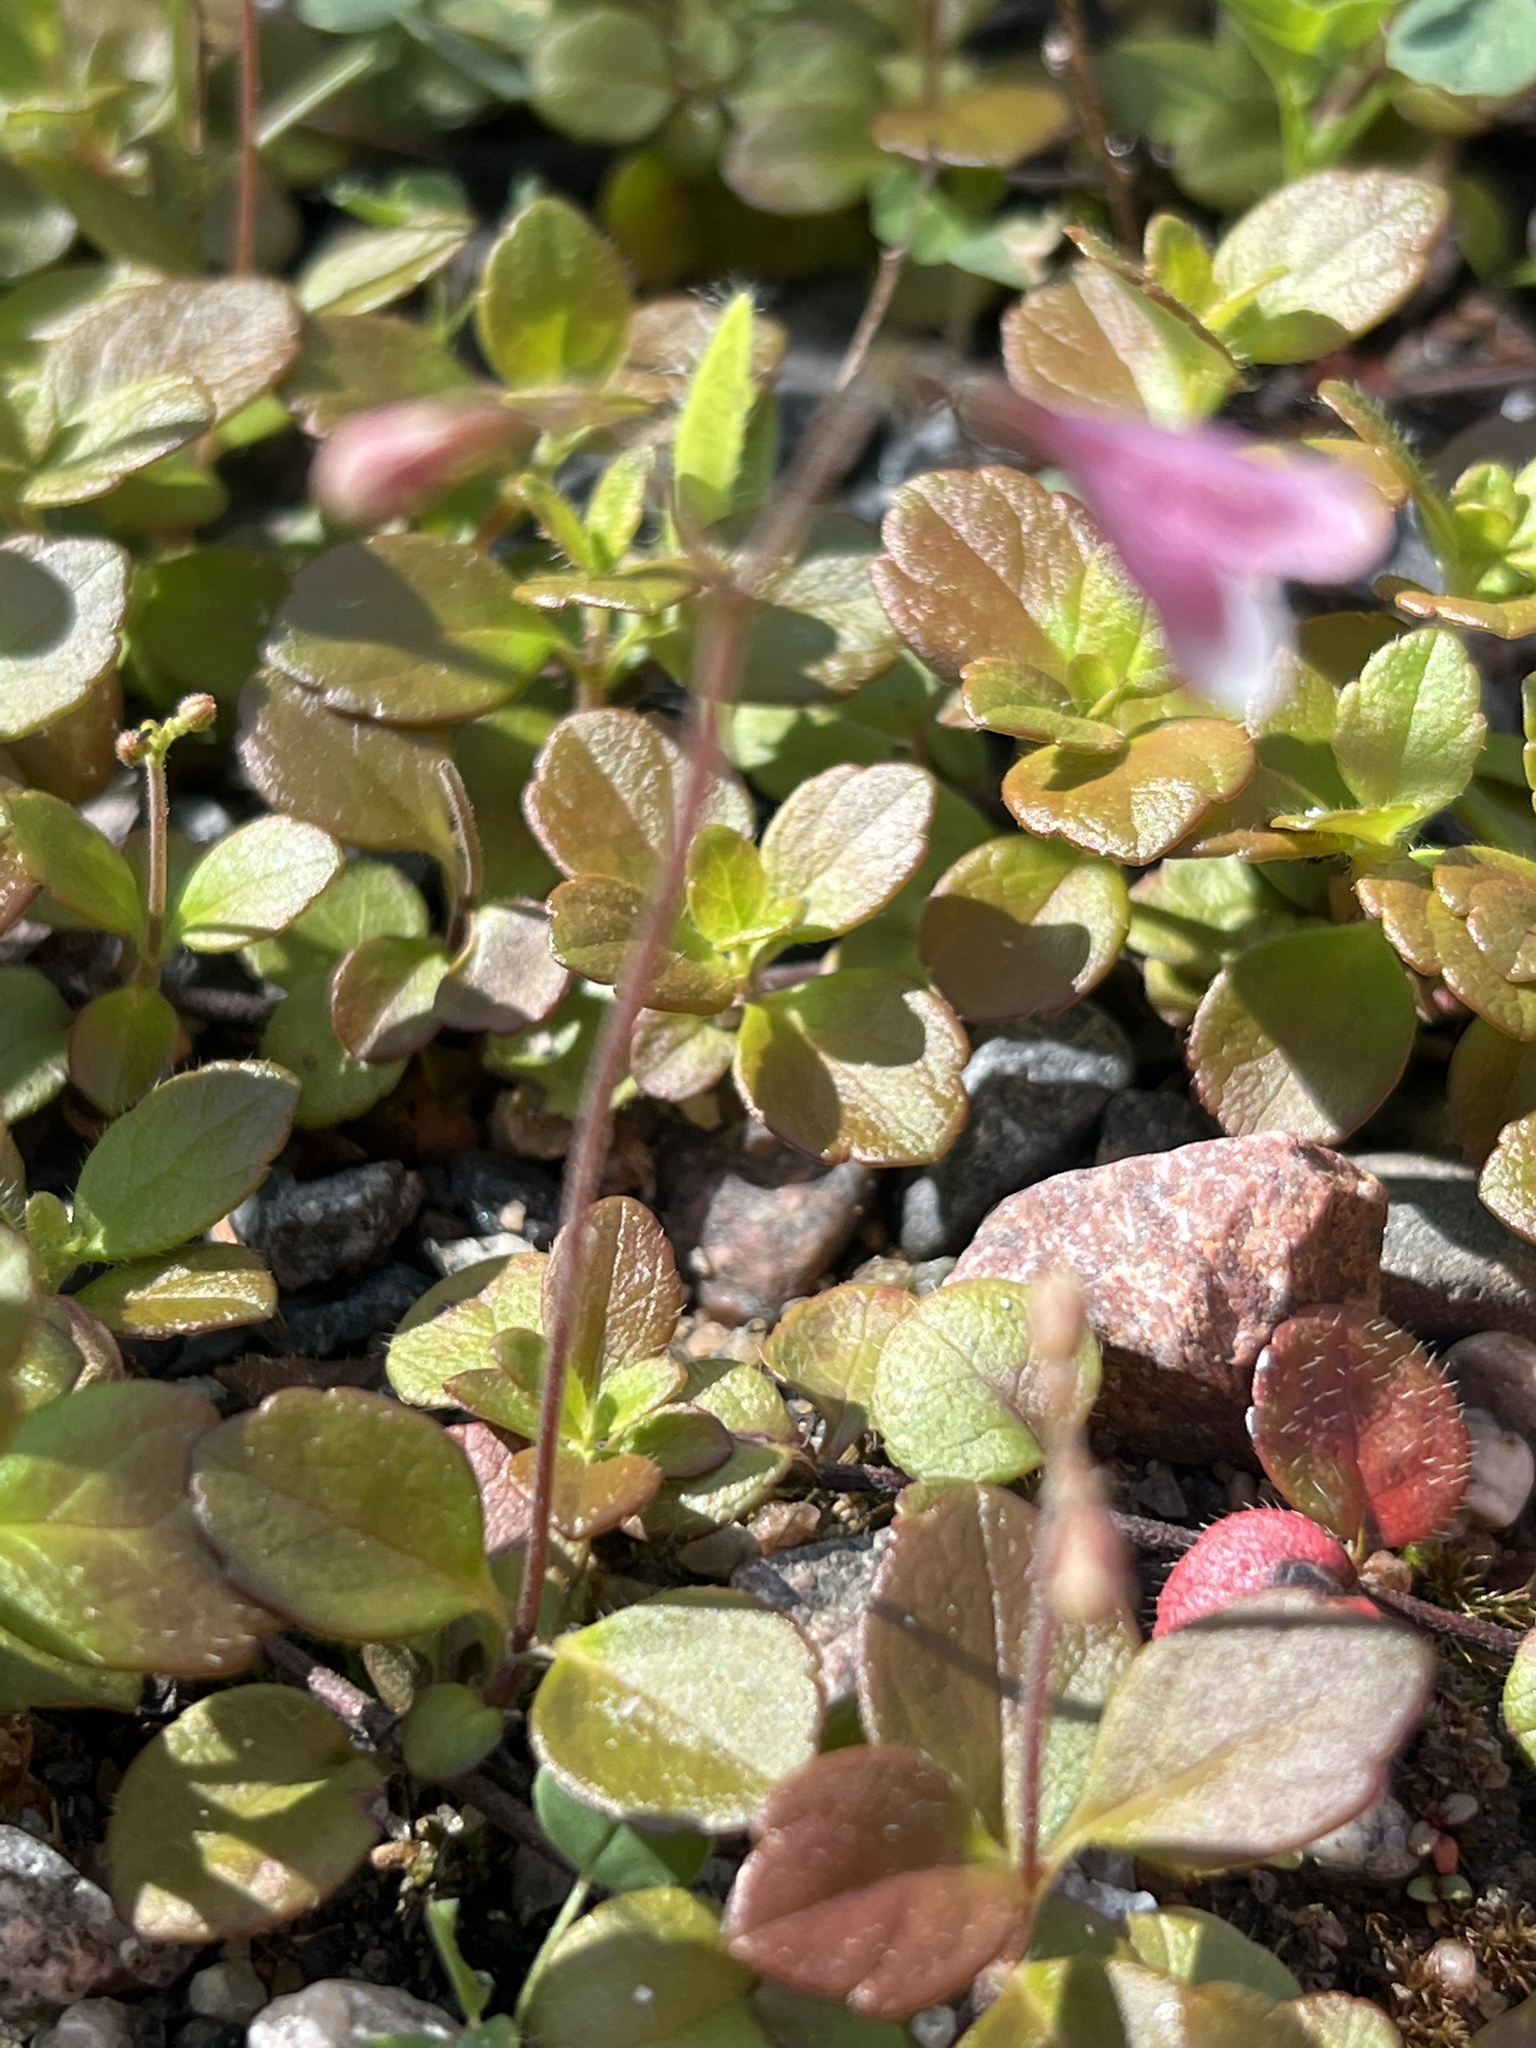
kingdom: Plantae
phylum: Tracheophyta
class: Magnoliopsida
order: Dipsacales
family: Caprifoliaceae
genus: Linnaea
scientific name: Linnaea borealis
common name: Twinflower
